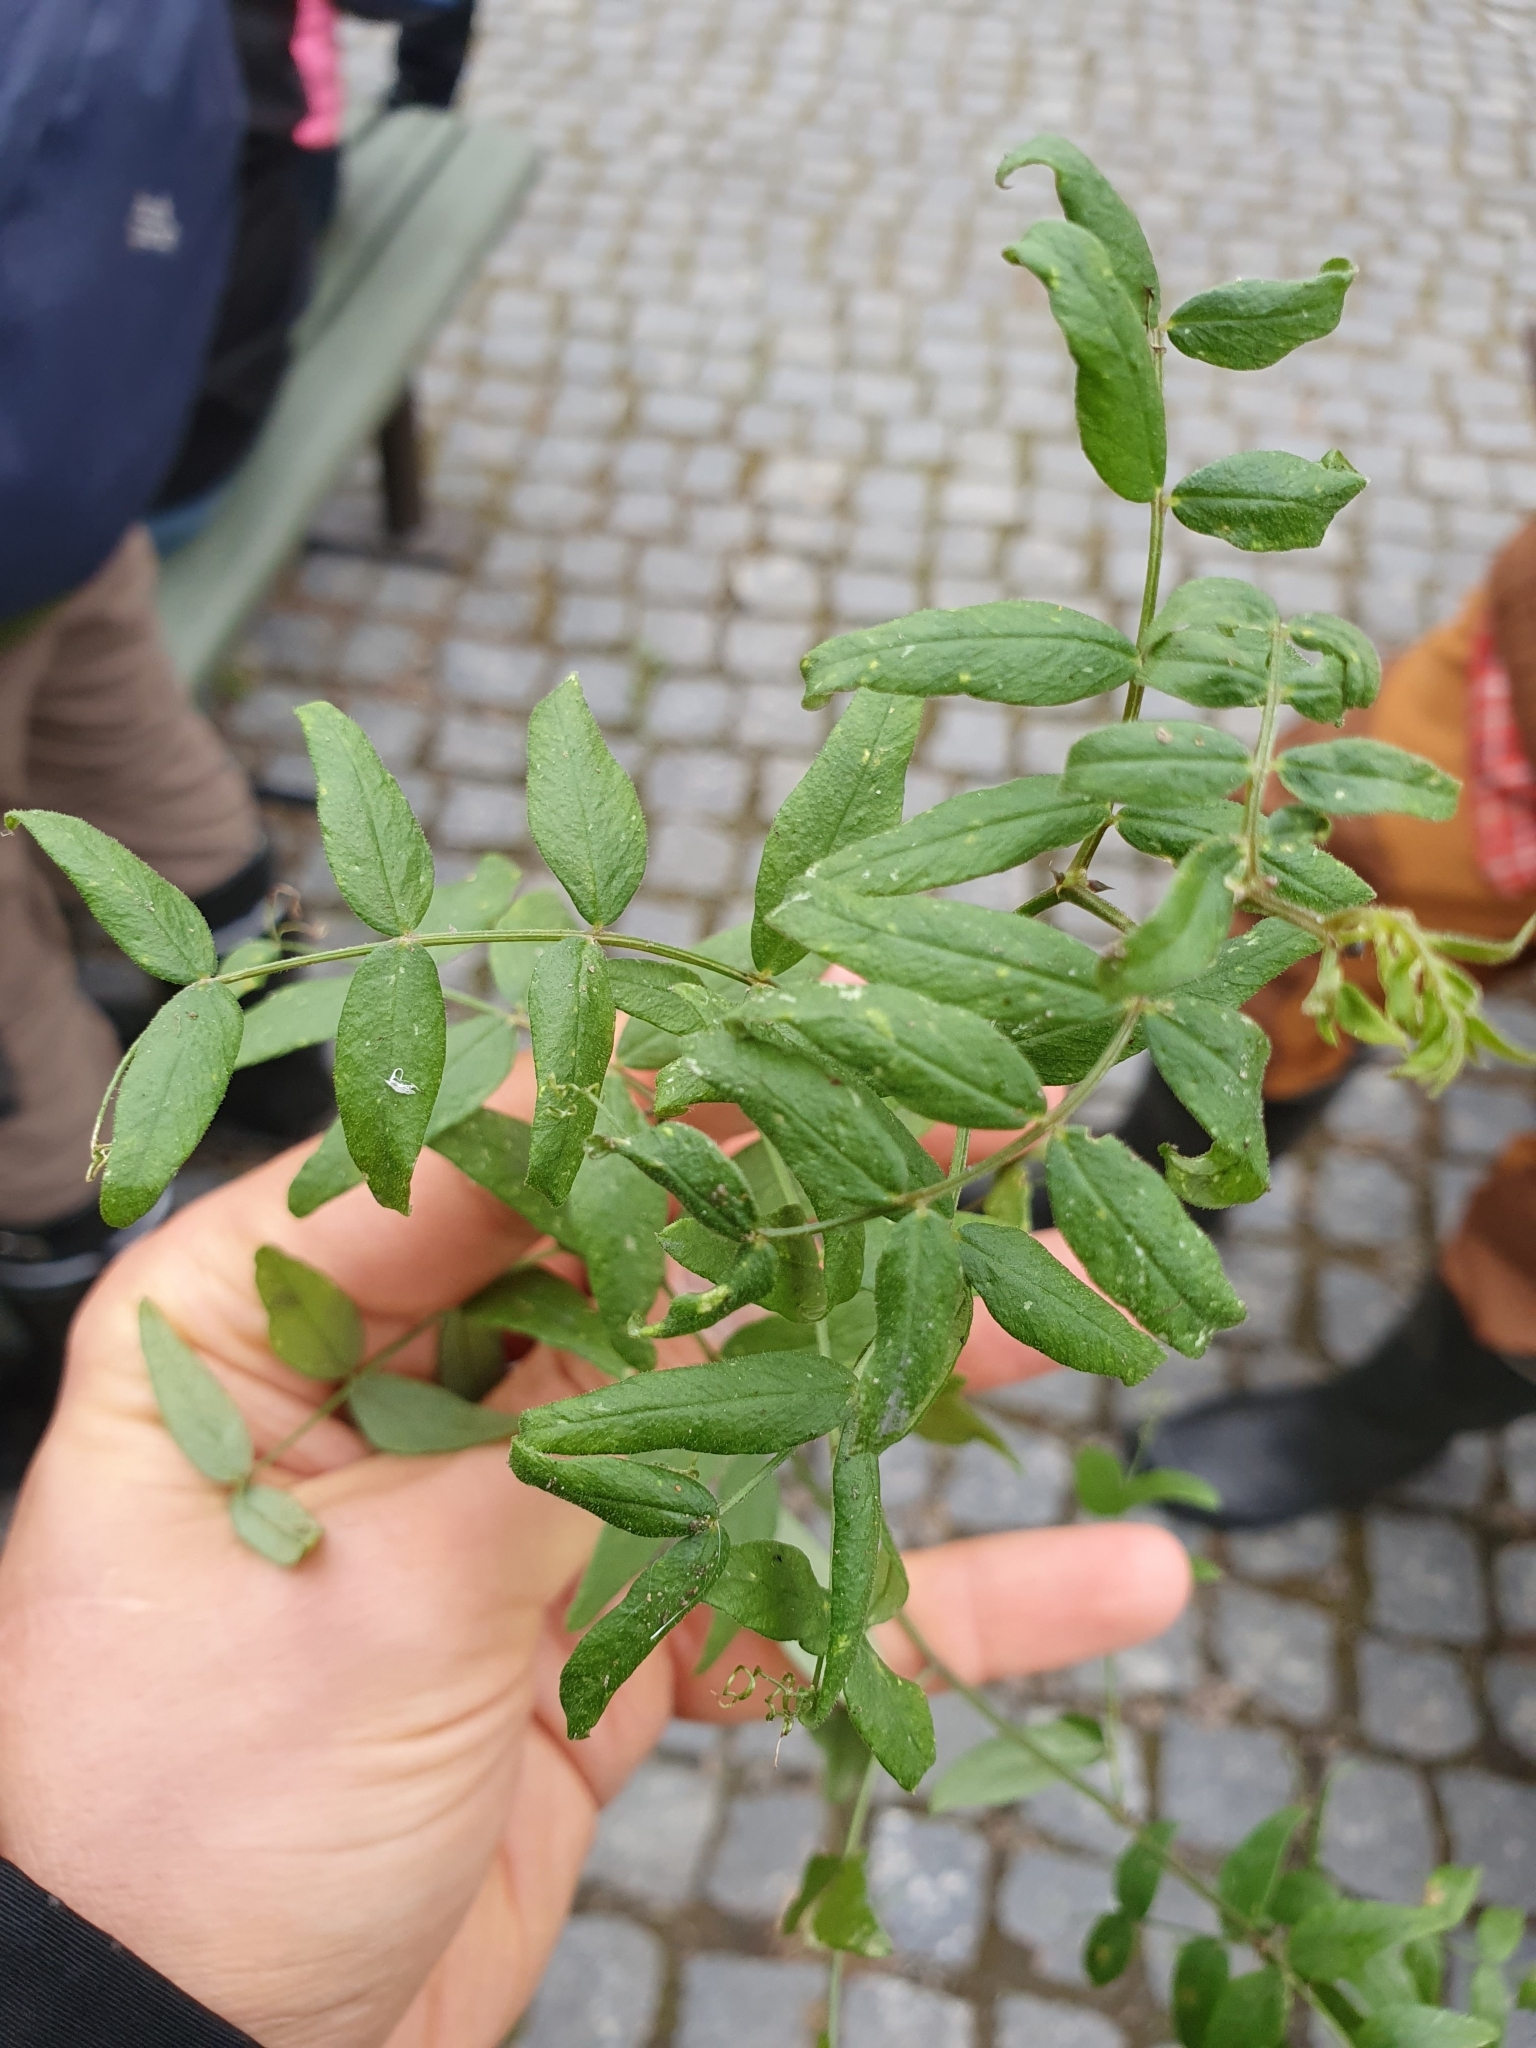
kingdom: Plantae
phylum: Tracheophyta
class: Magnoliopsida
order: Fabales
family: Fabaceae
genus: Vicia
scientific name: Vicia sepium
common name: Bush vetch
